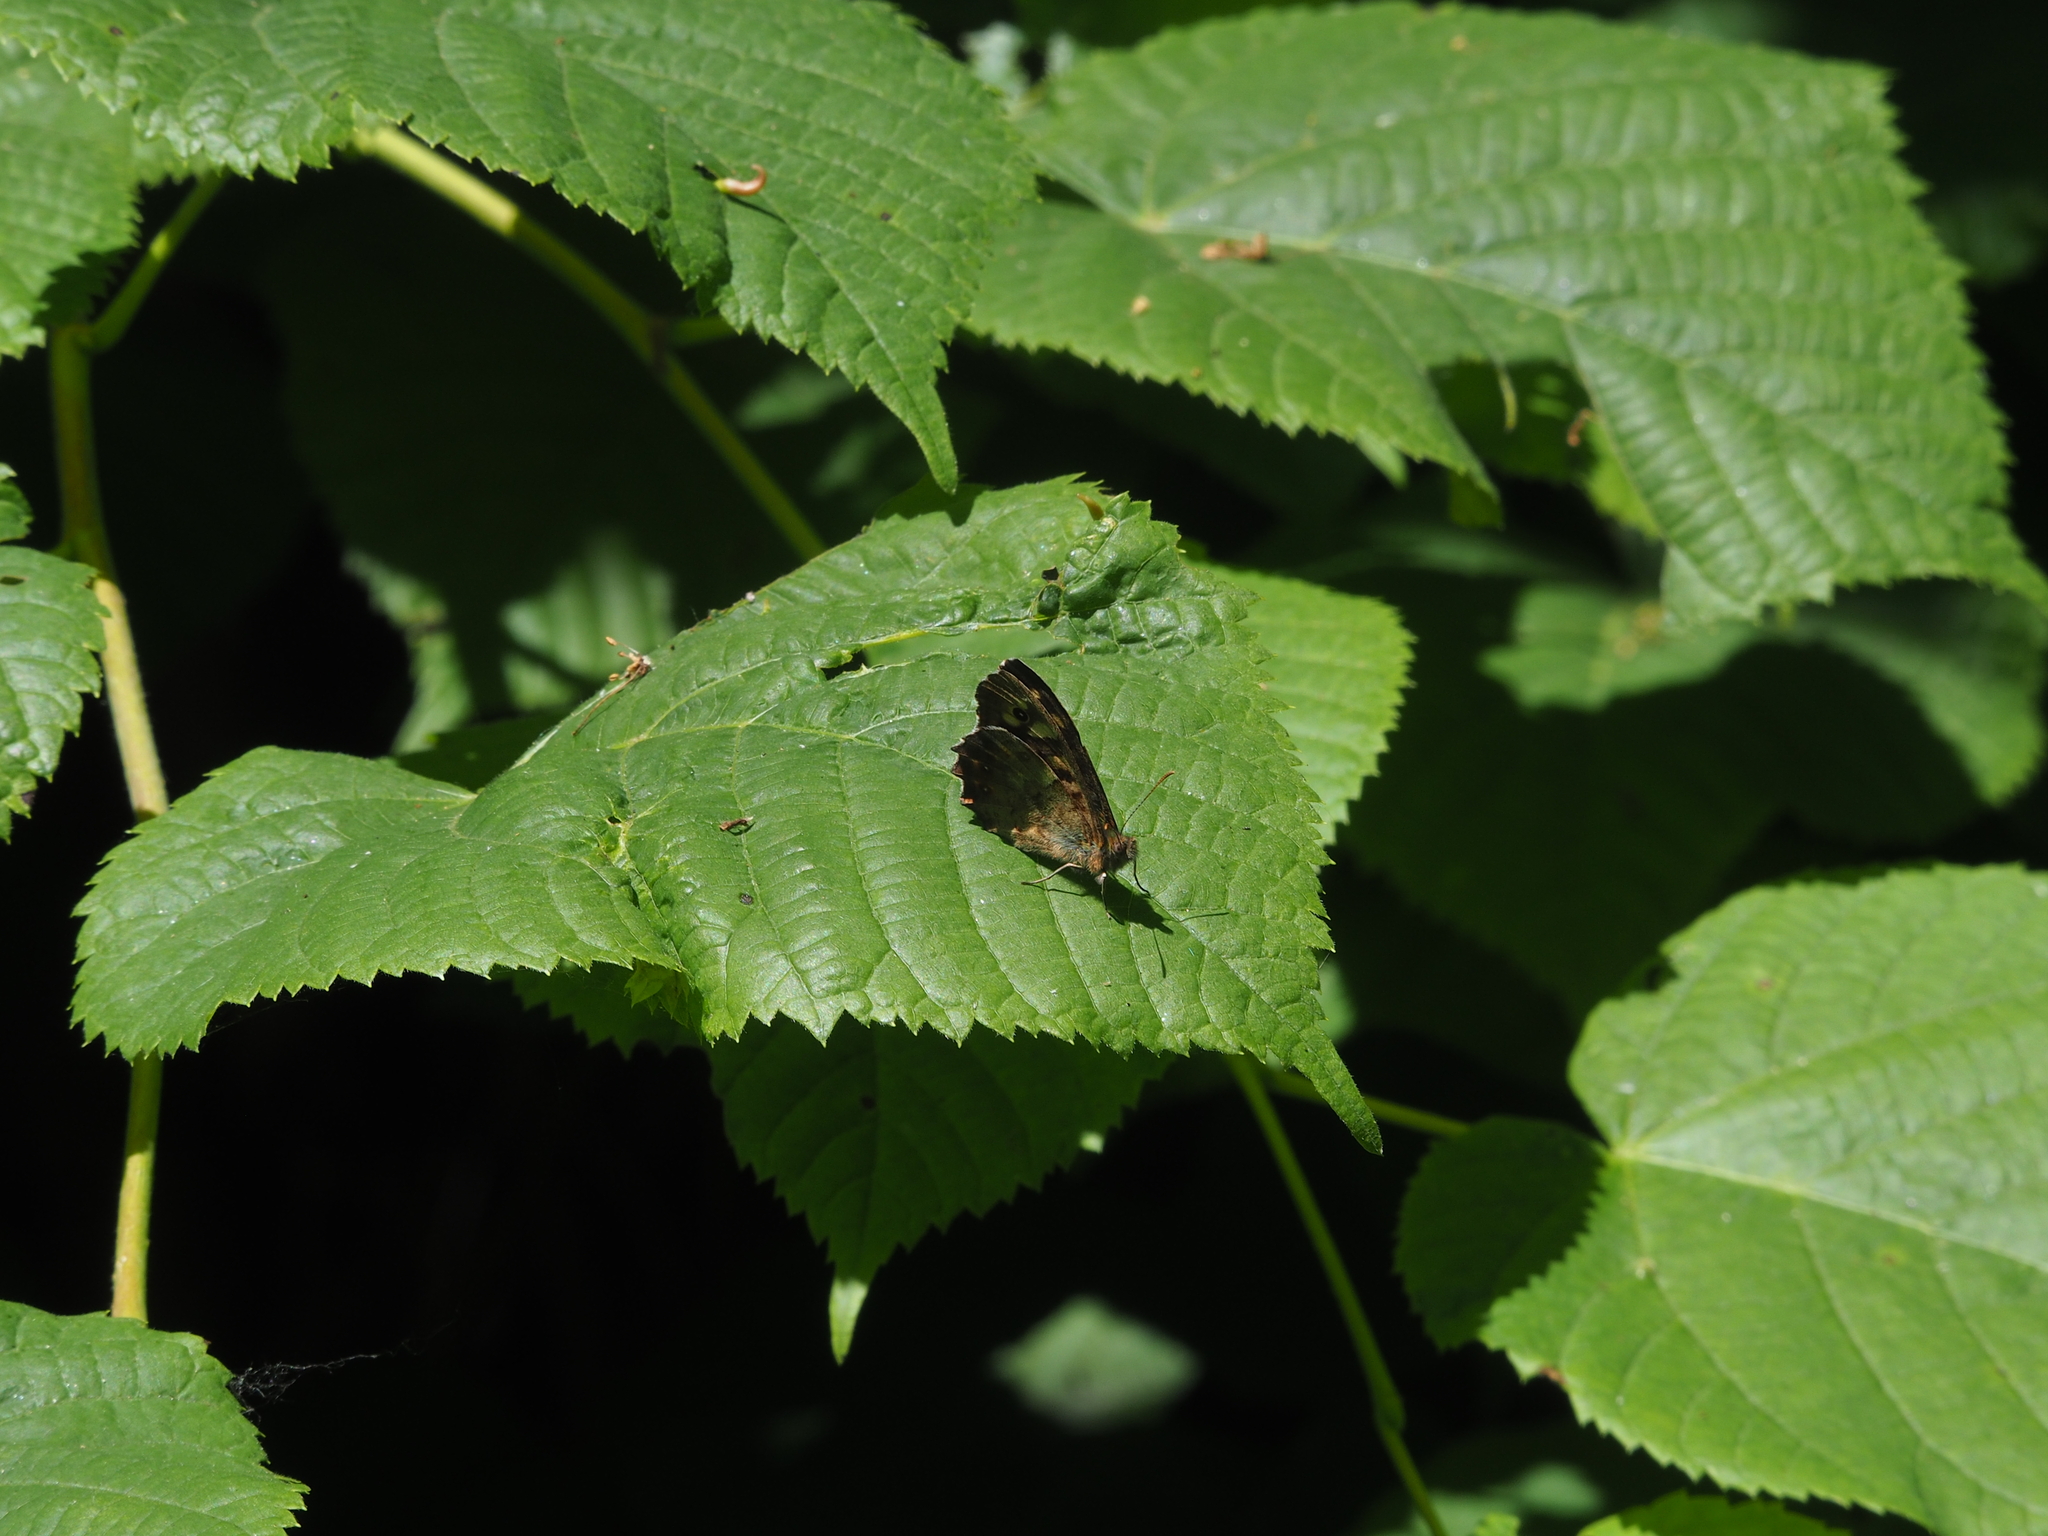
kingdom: Animalia
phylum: Arthropoda
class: Insecta
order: Lepidoptera
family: Nymphalidae
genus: Pararge
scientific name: Pararge aegeria
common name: Speckled wood
